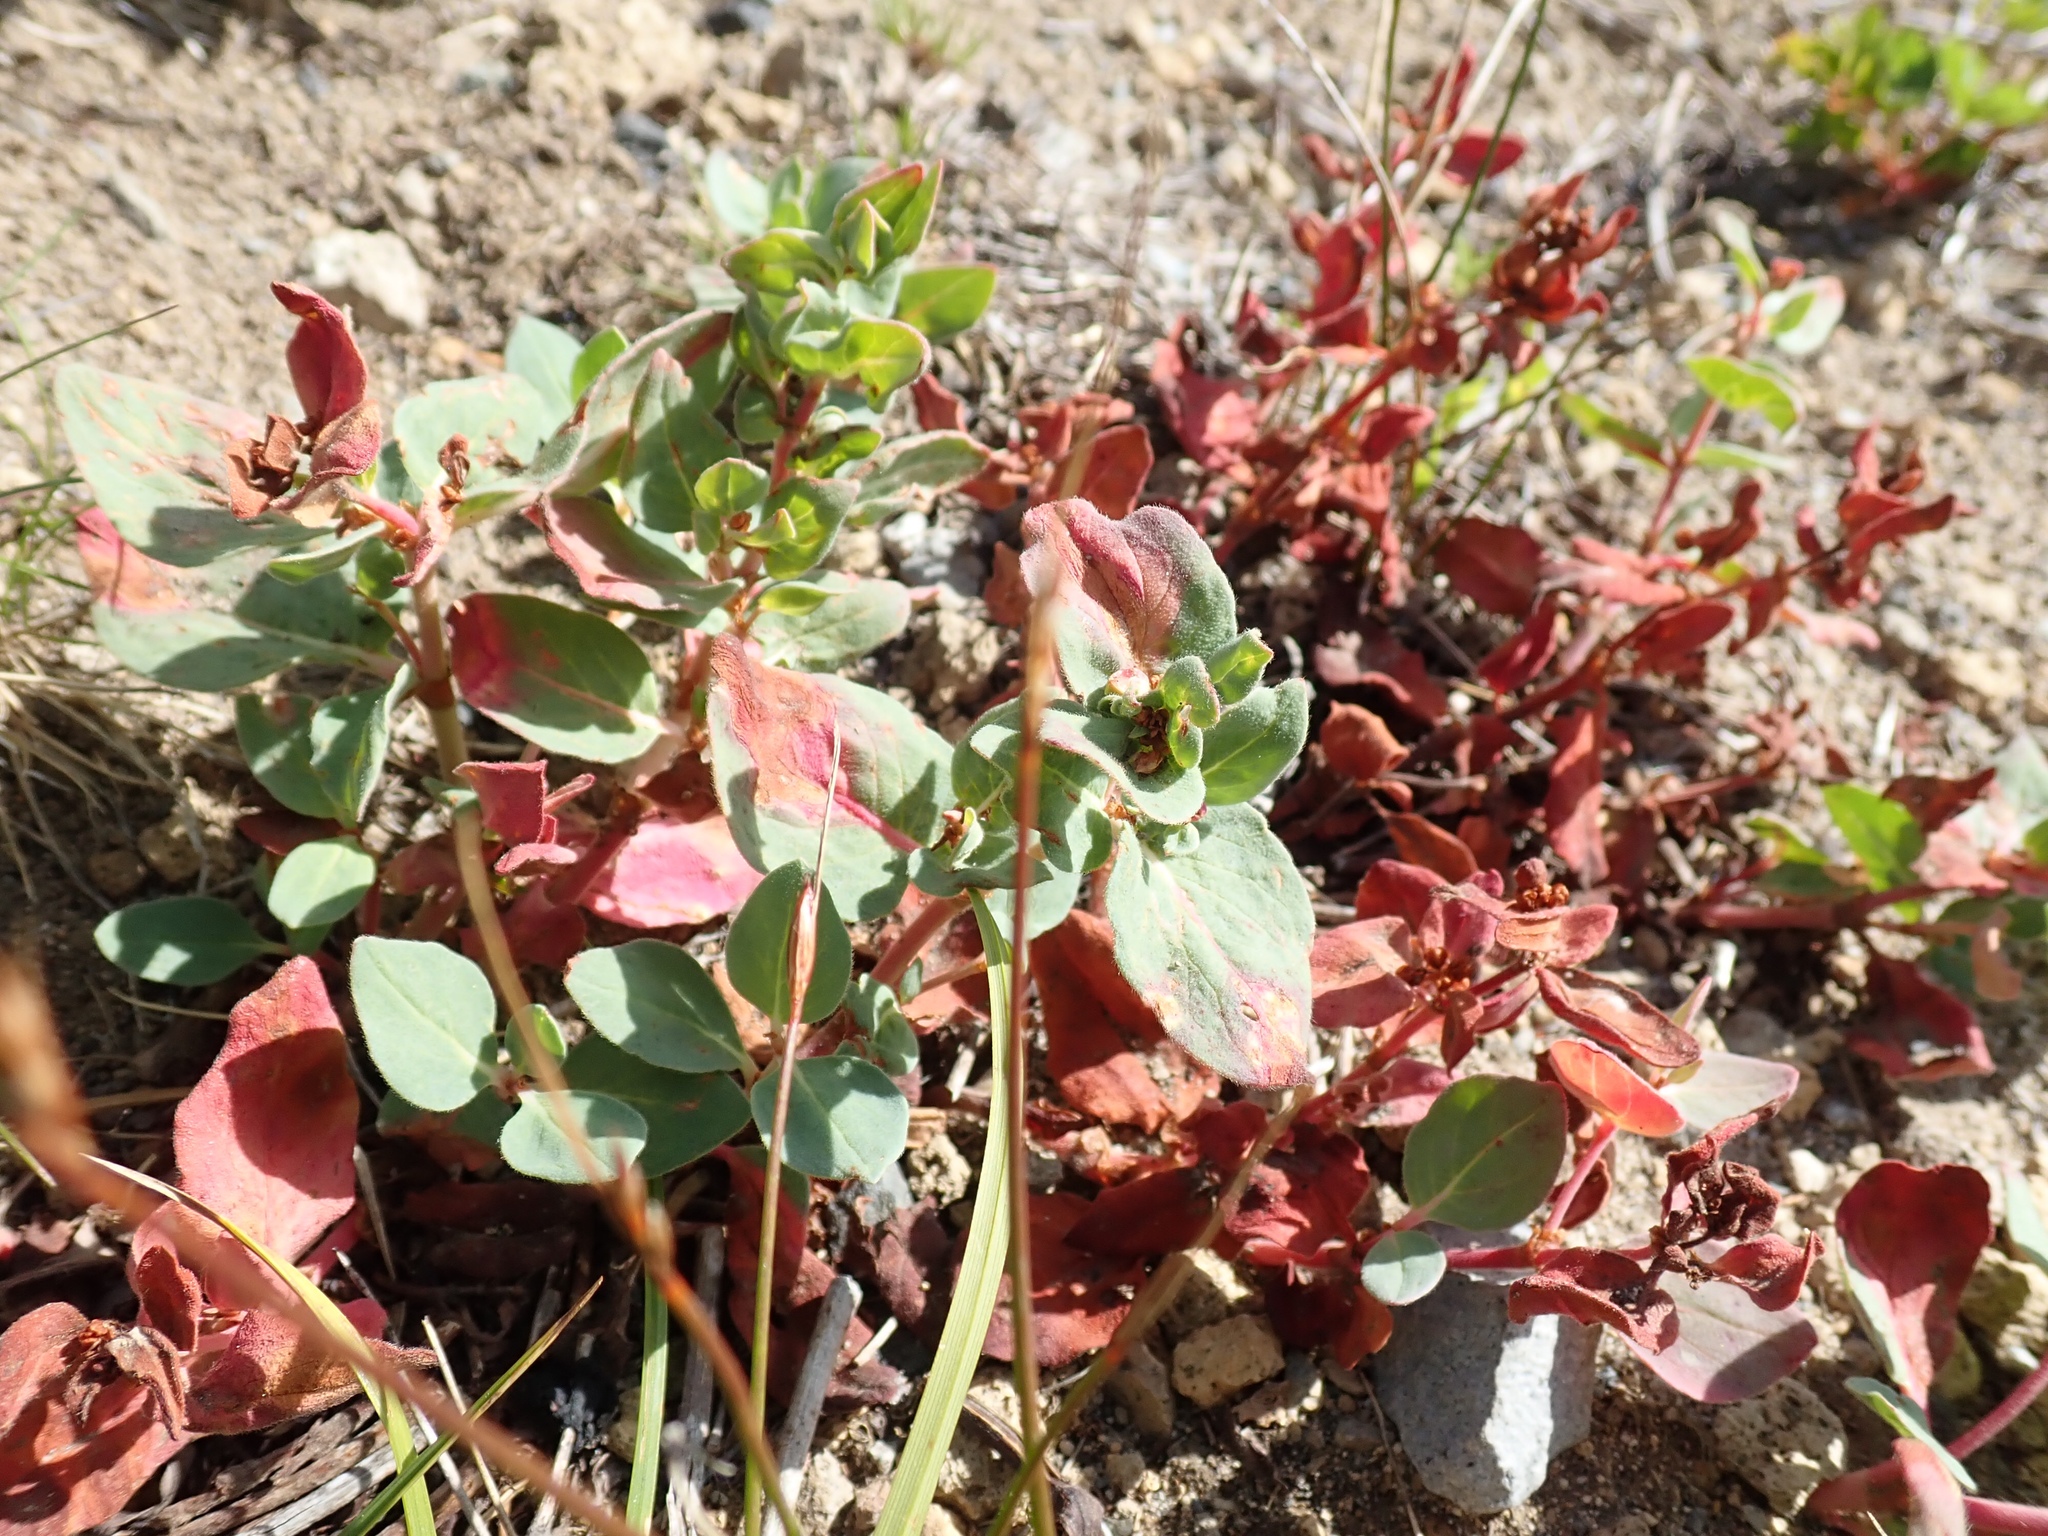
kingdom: Plantae
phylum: Tracheophyta
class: Magnoliopsida
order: Caryophyllales
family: Polygonaceae
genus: Koenigia
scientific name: Koenigia davisiae
